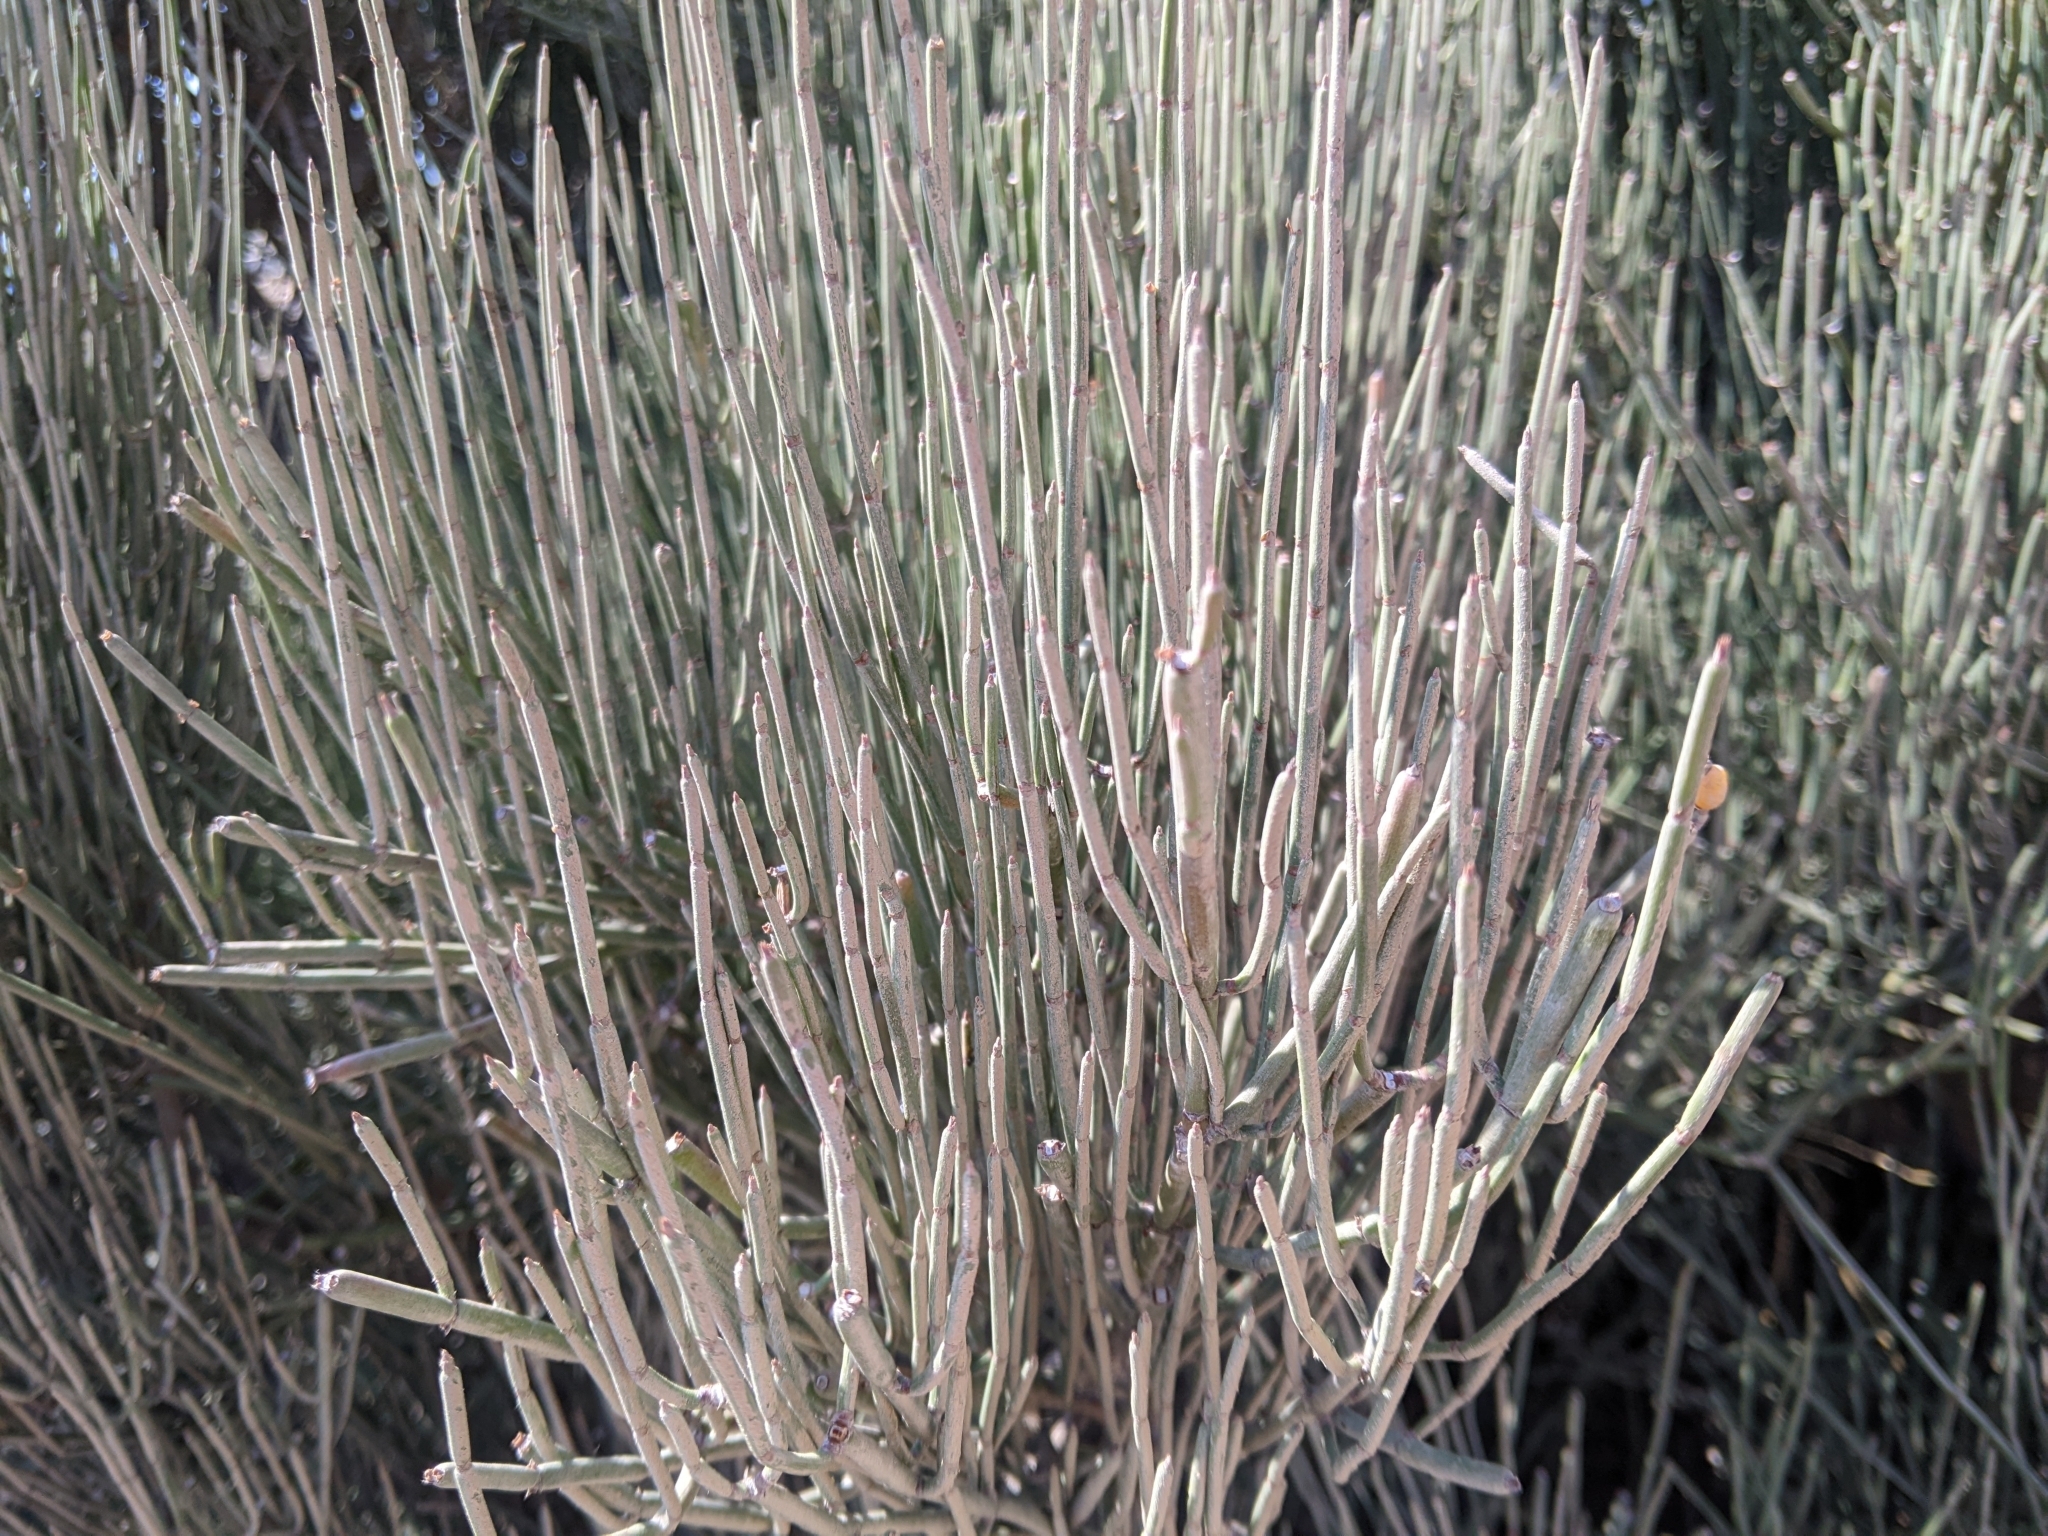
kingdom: Plantae
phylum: Tracheophyta
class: Gnetopsida
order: Ephedrales
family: Ephedraceae
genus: Ephedra
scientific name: Ephedra fragilis
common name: Joint pine
